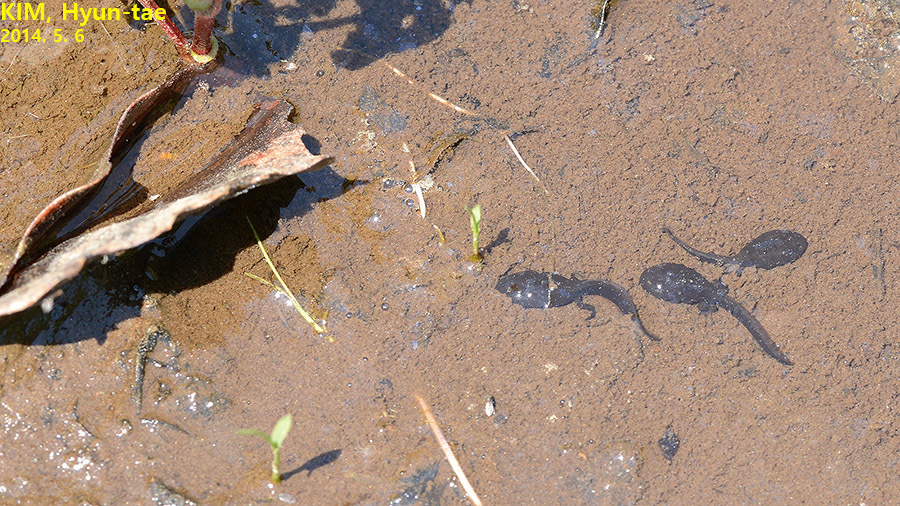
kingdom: Animalia
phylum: Chordata
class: Amphibia
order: Anura
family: Bufonidae
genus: Bufo
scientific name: Bufo gargarizans
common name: Asiatic toad
